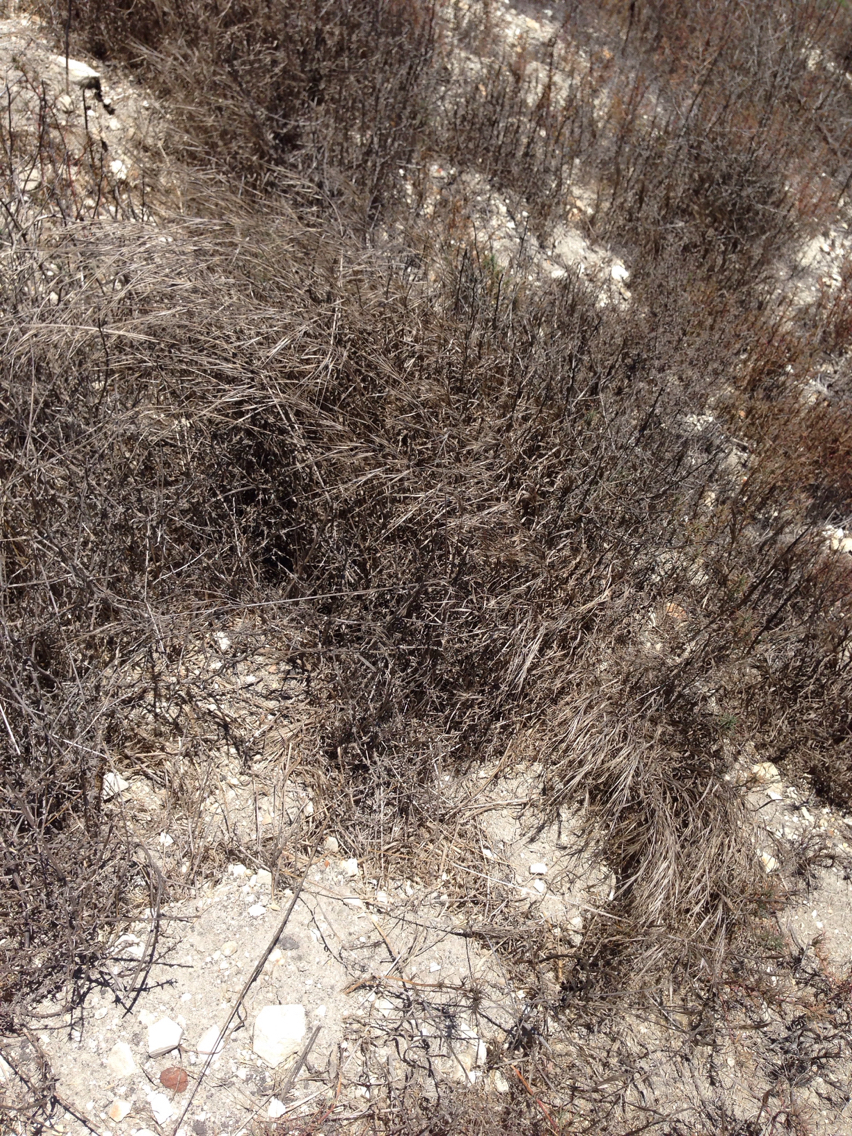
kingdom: Plantae
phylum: Tracheophyta
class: Liliopsida
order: Poales
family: Poaceae
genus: Bromus
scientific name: Bromus diandrus
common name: Ripgut brome
